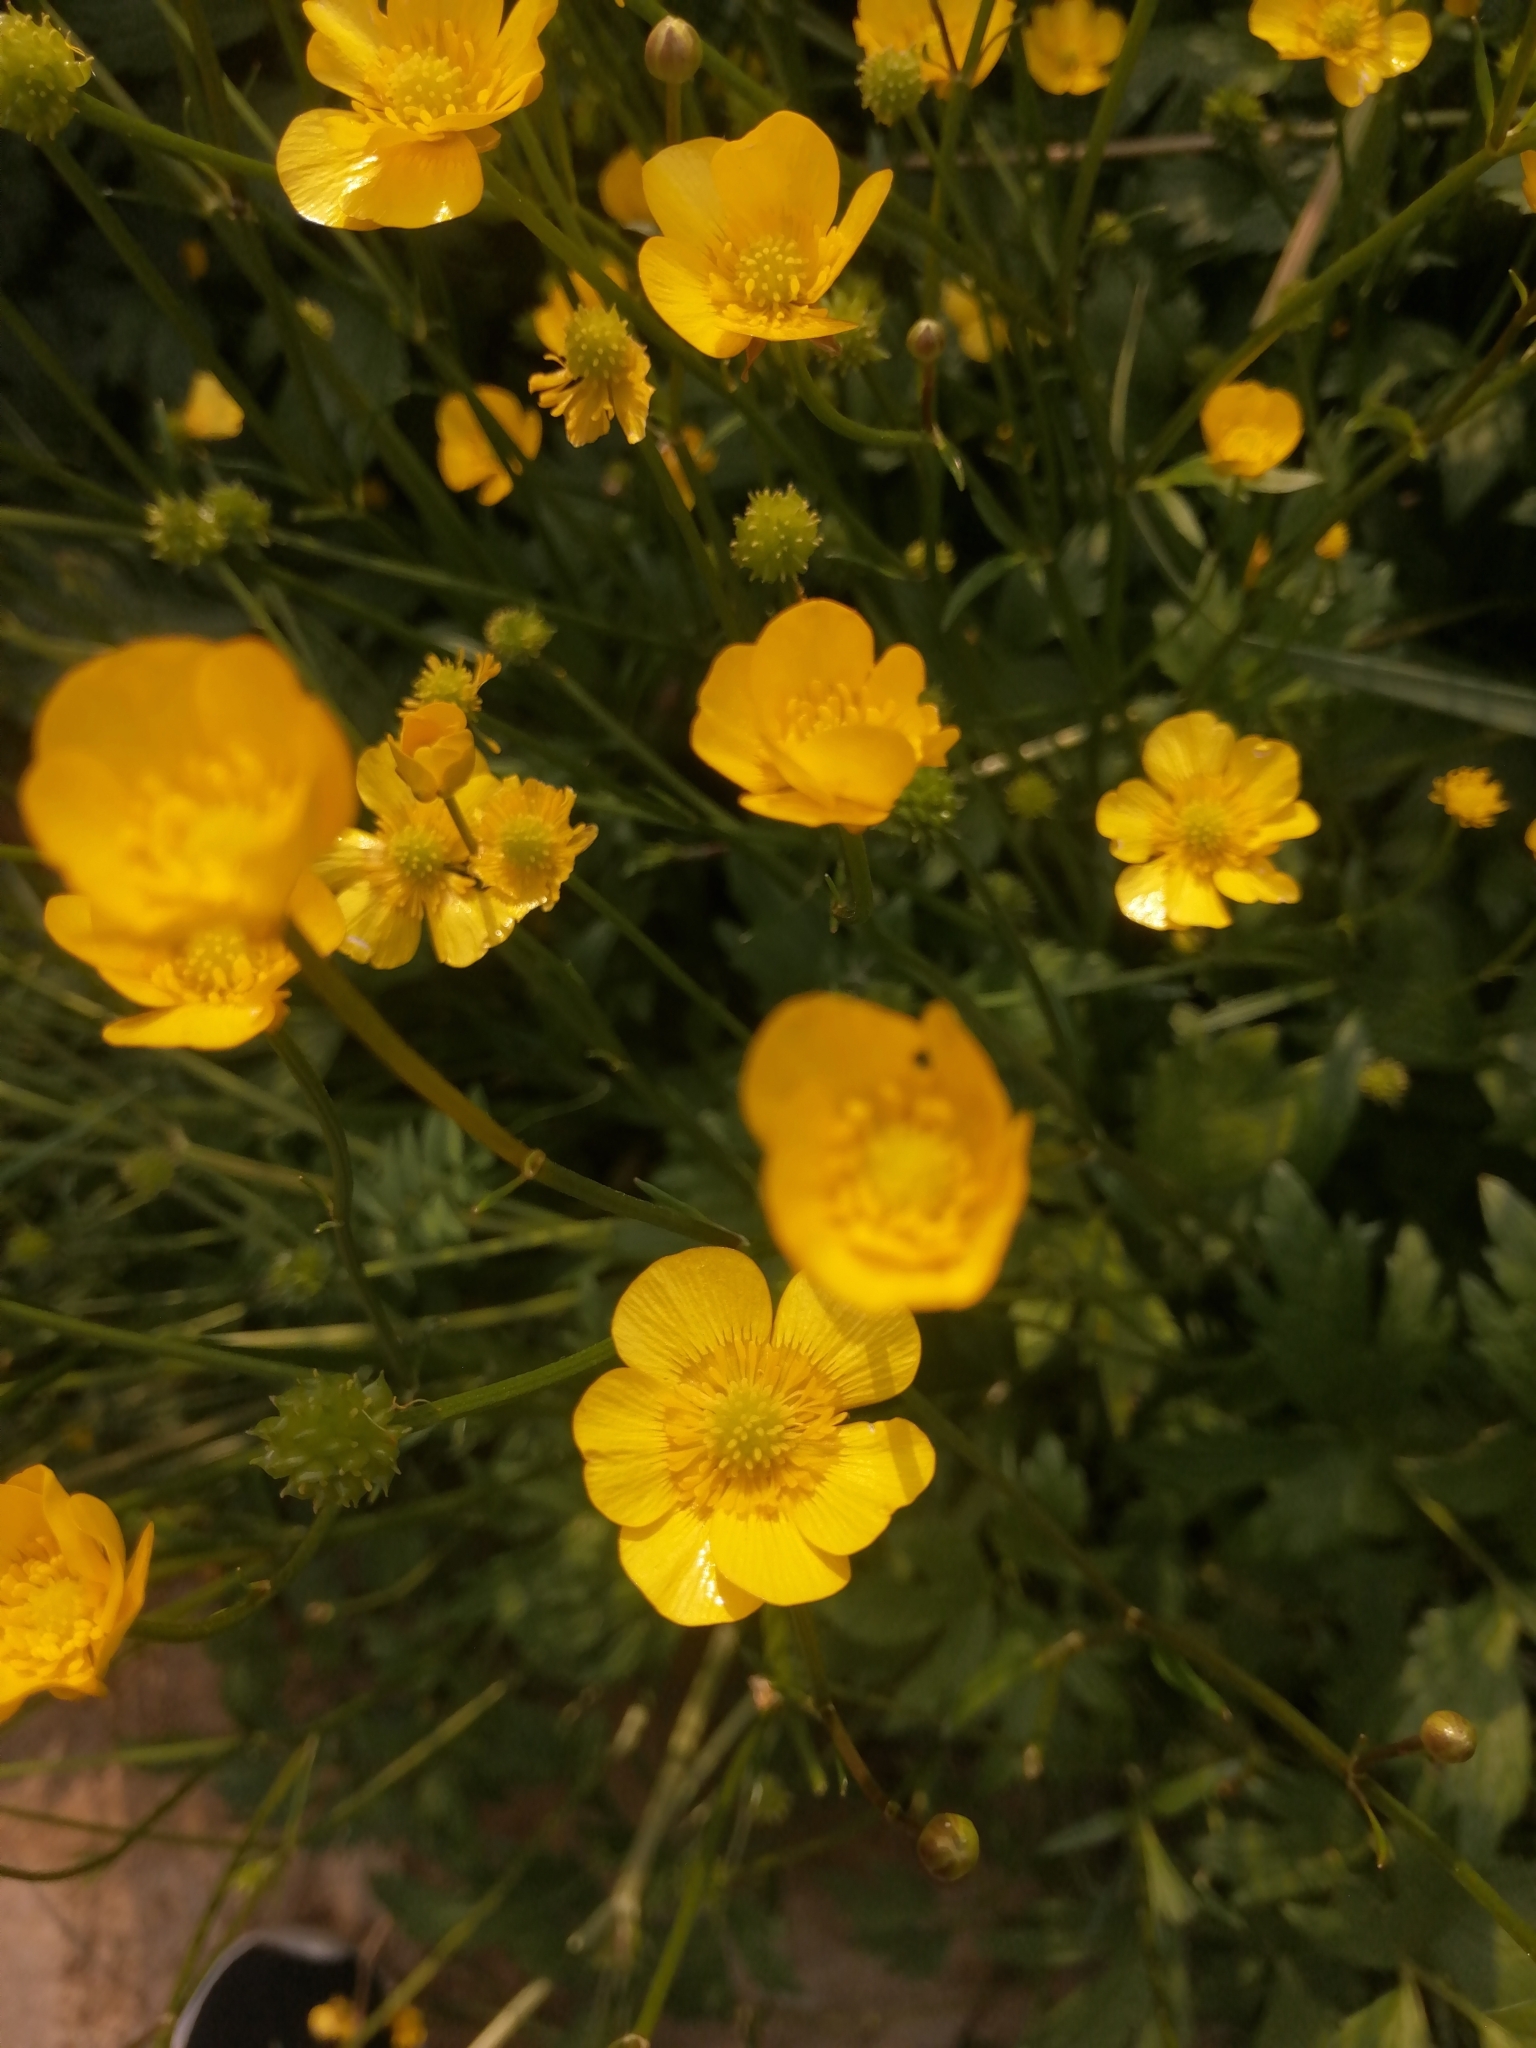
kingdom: Plantae
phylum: Tracheophyta
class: Magnoliopsida
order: Ranunculales
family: Ranunculaceae
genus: Ranunculus
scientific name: Ranunculus repens
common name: Creeping buttercup
